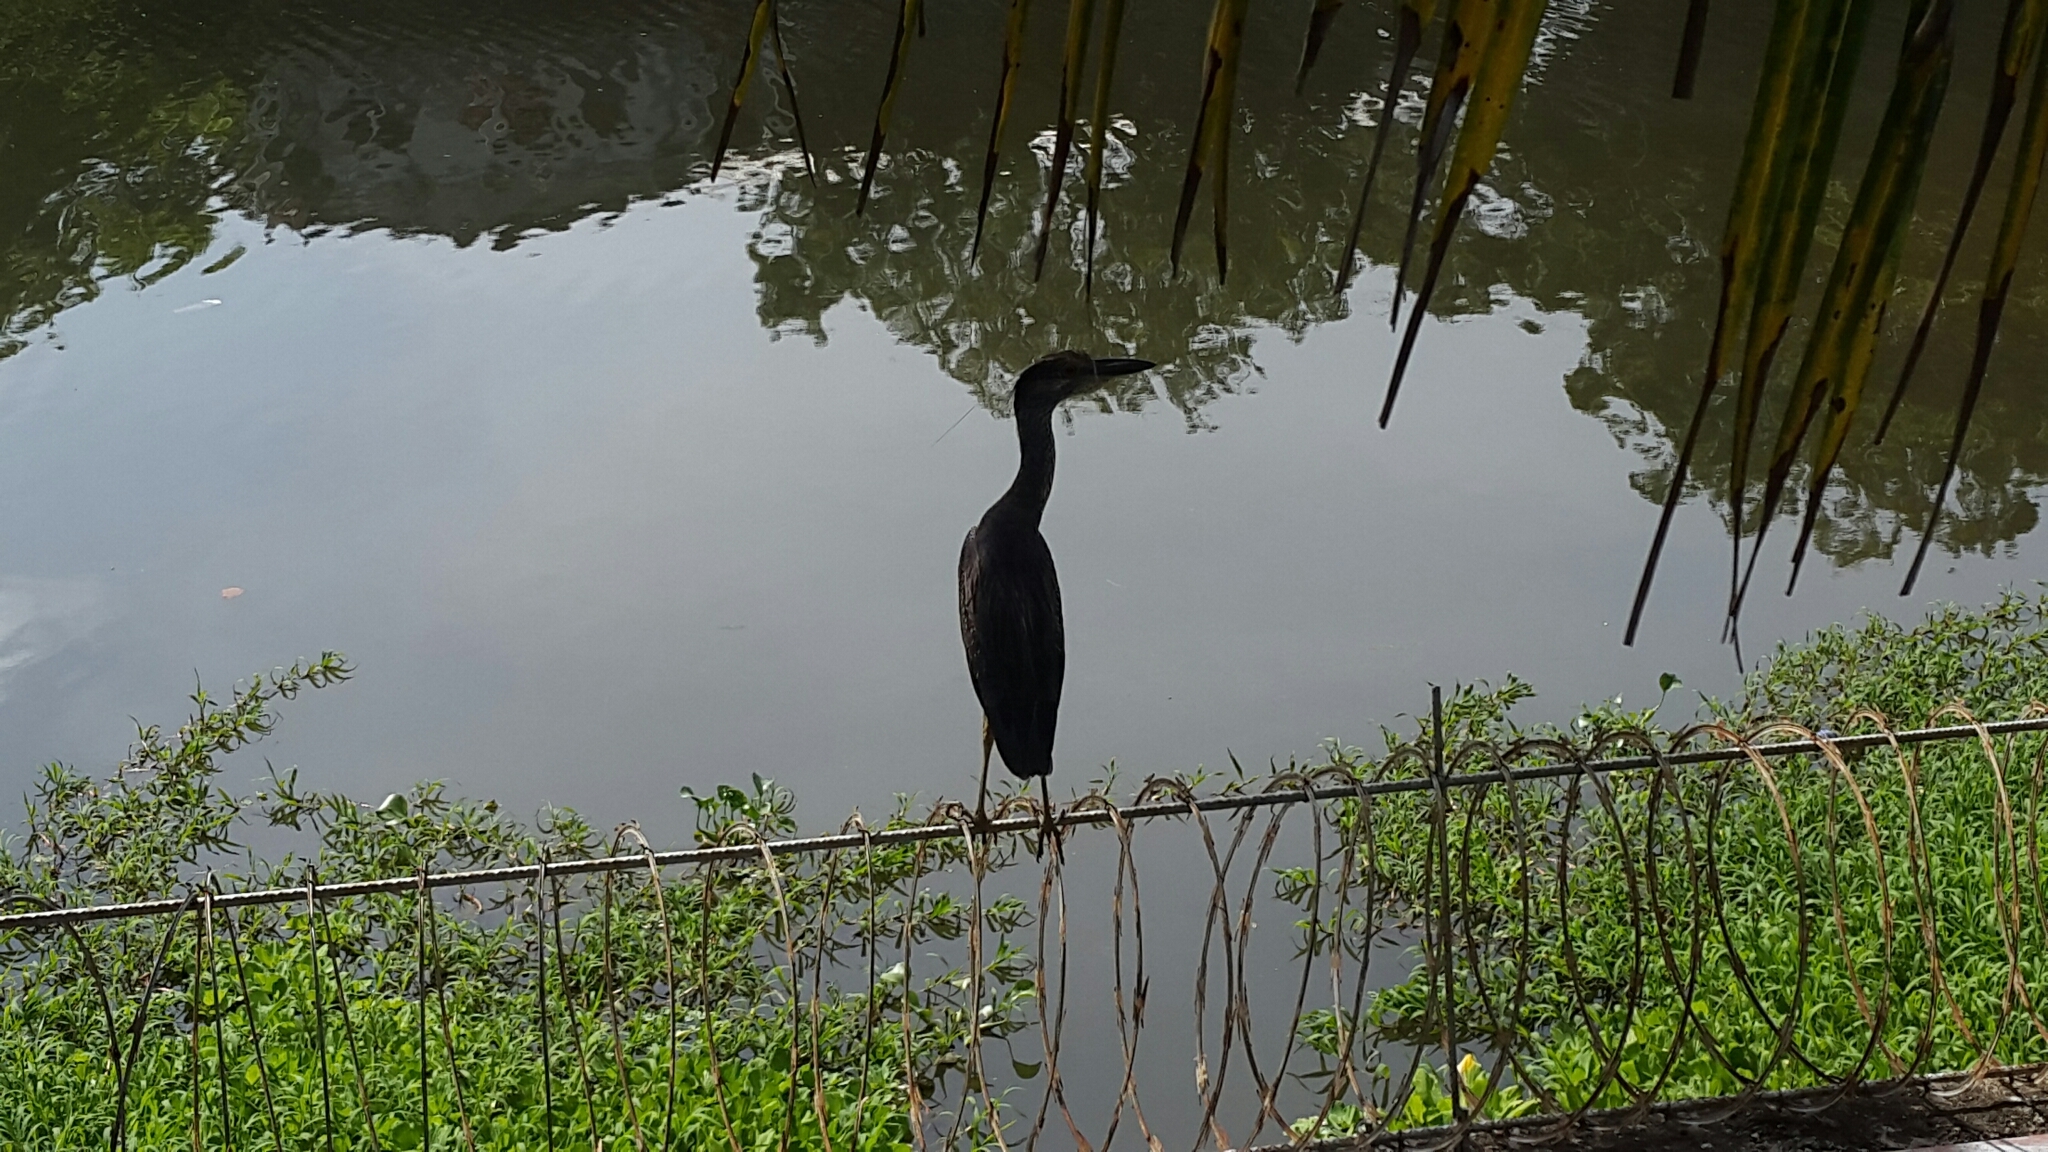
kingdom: Animalia
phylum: Chordata
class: Aves
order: Pelecaniformes
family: Ardeidae
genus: Nyctanassa
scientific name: Nyctanassa violacea
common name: Yellow-crowned night heron
